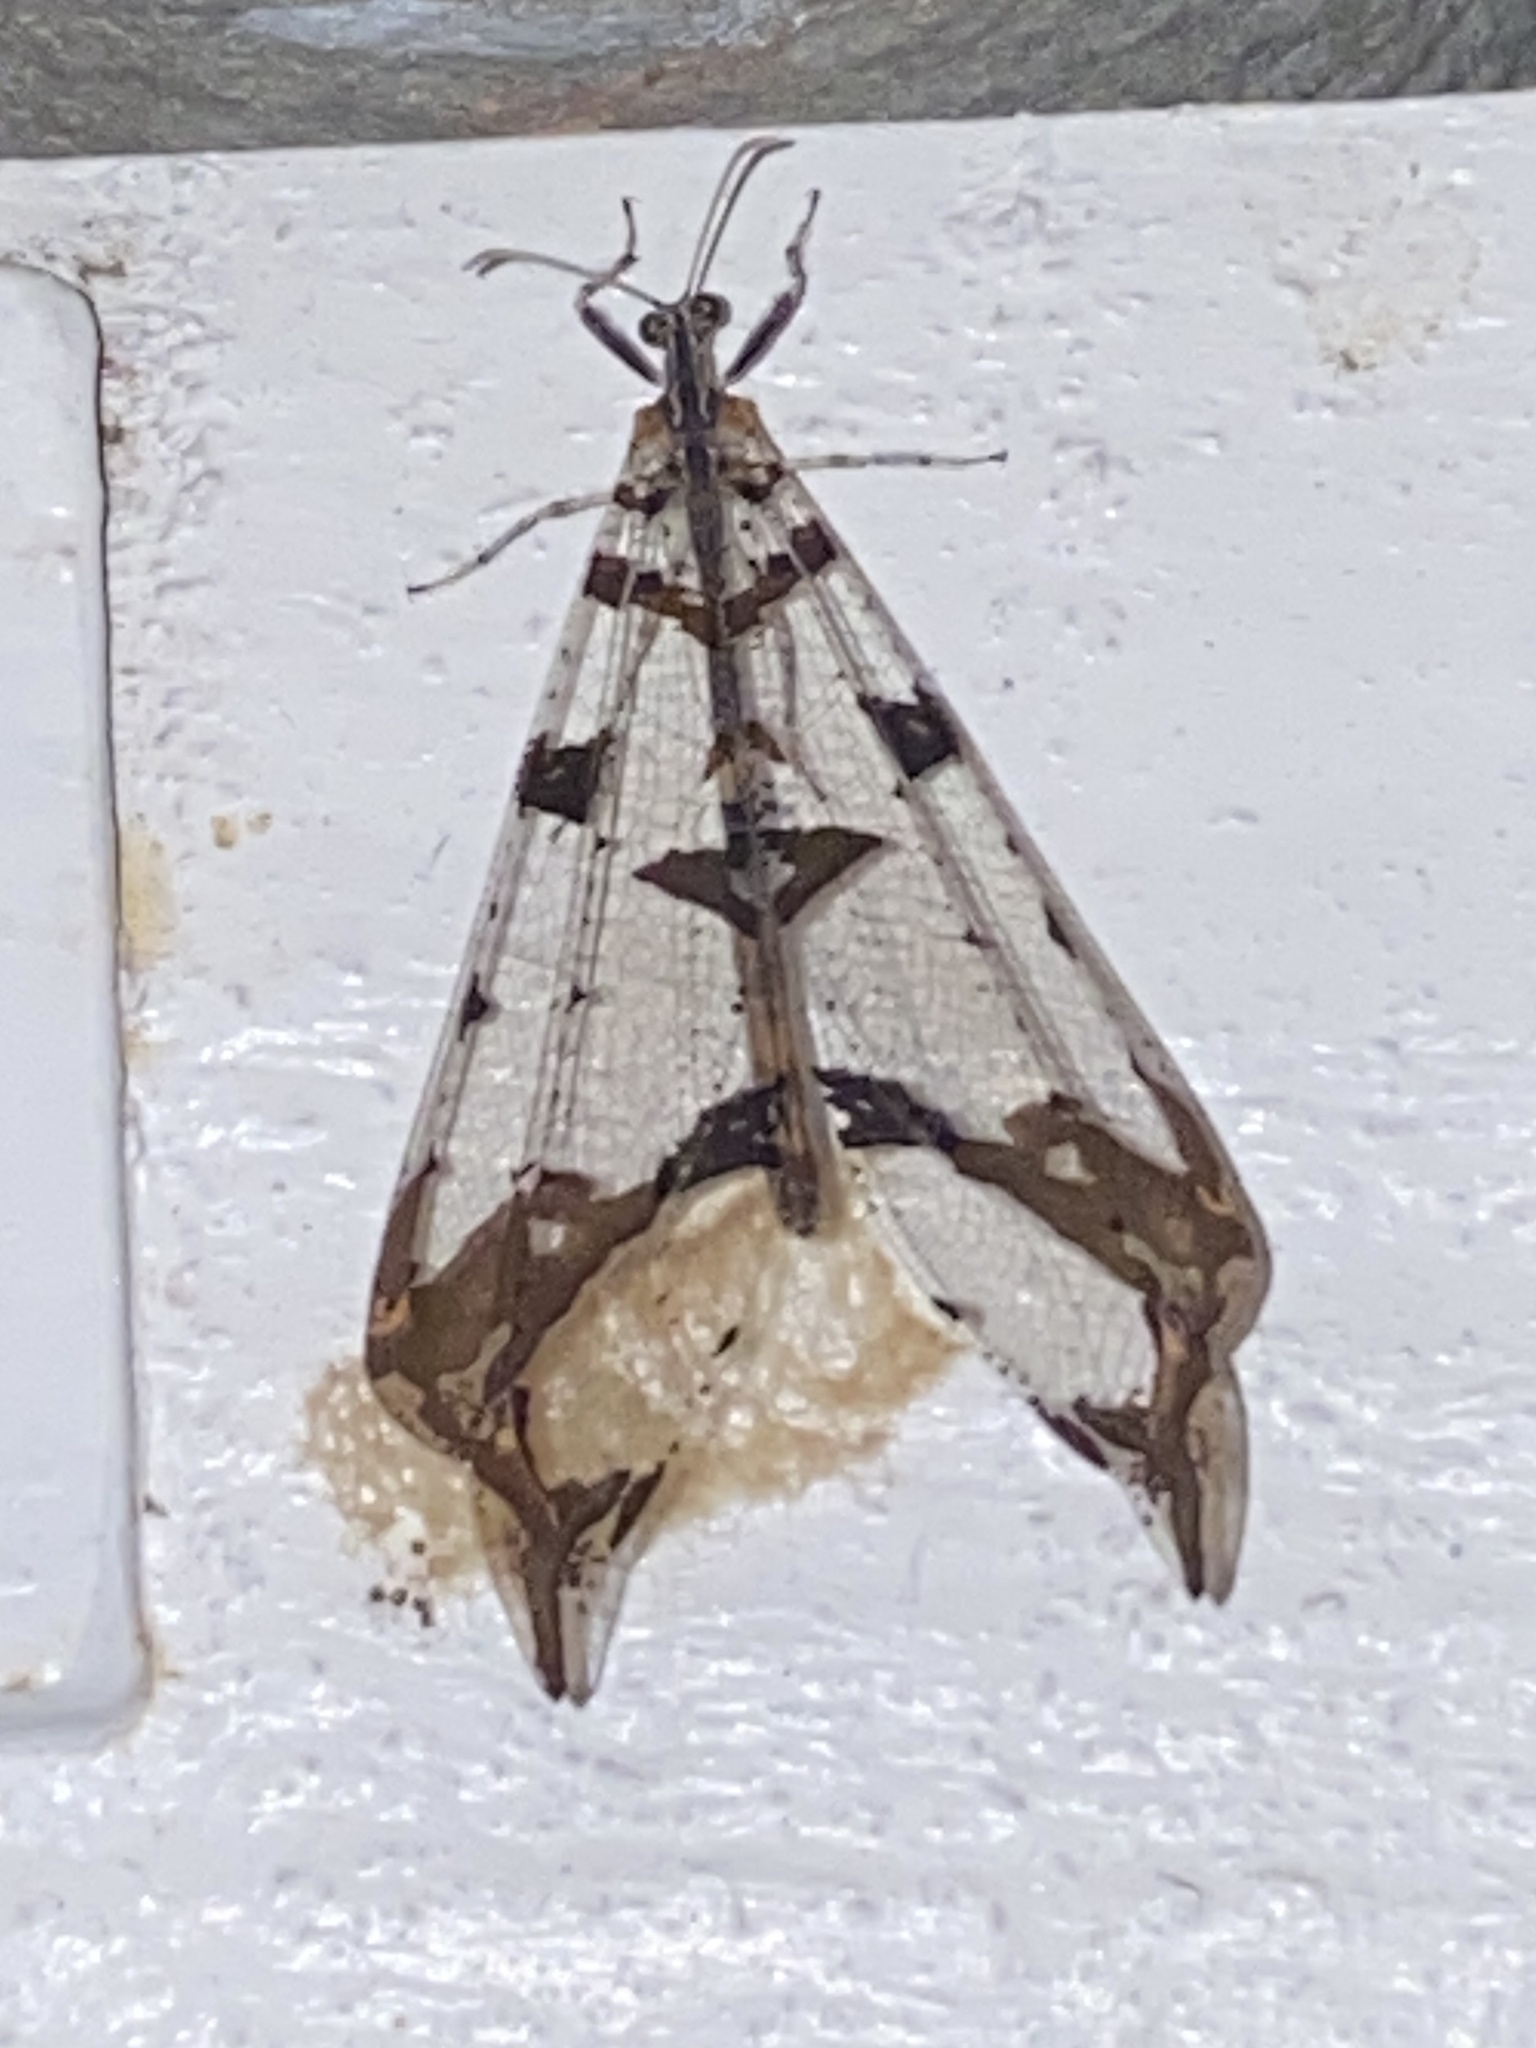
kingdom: Animalia
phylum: Arthropoda
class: Insecta
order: Neuroptera
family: Myrmeleontidae
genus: Cymothales
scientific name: Cymothales eccentros
